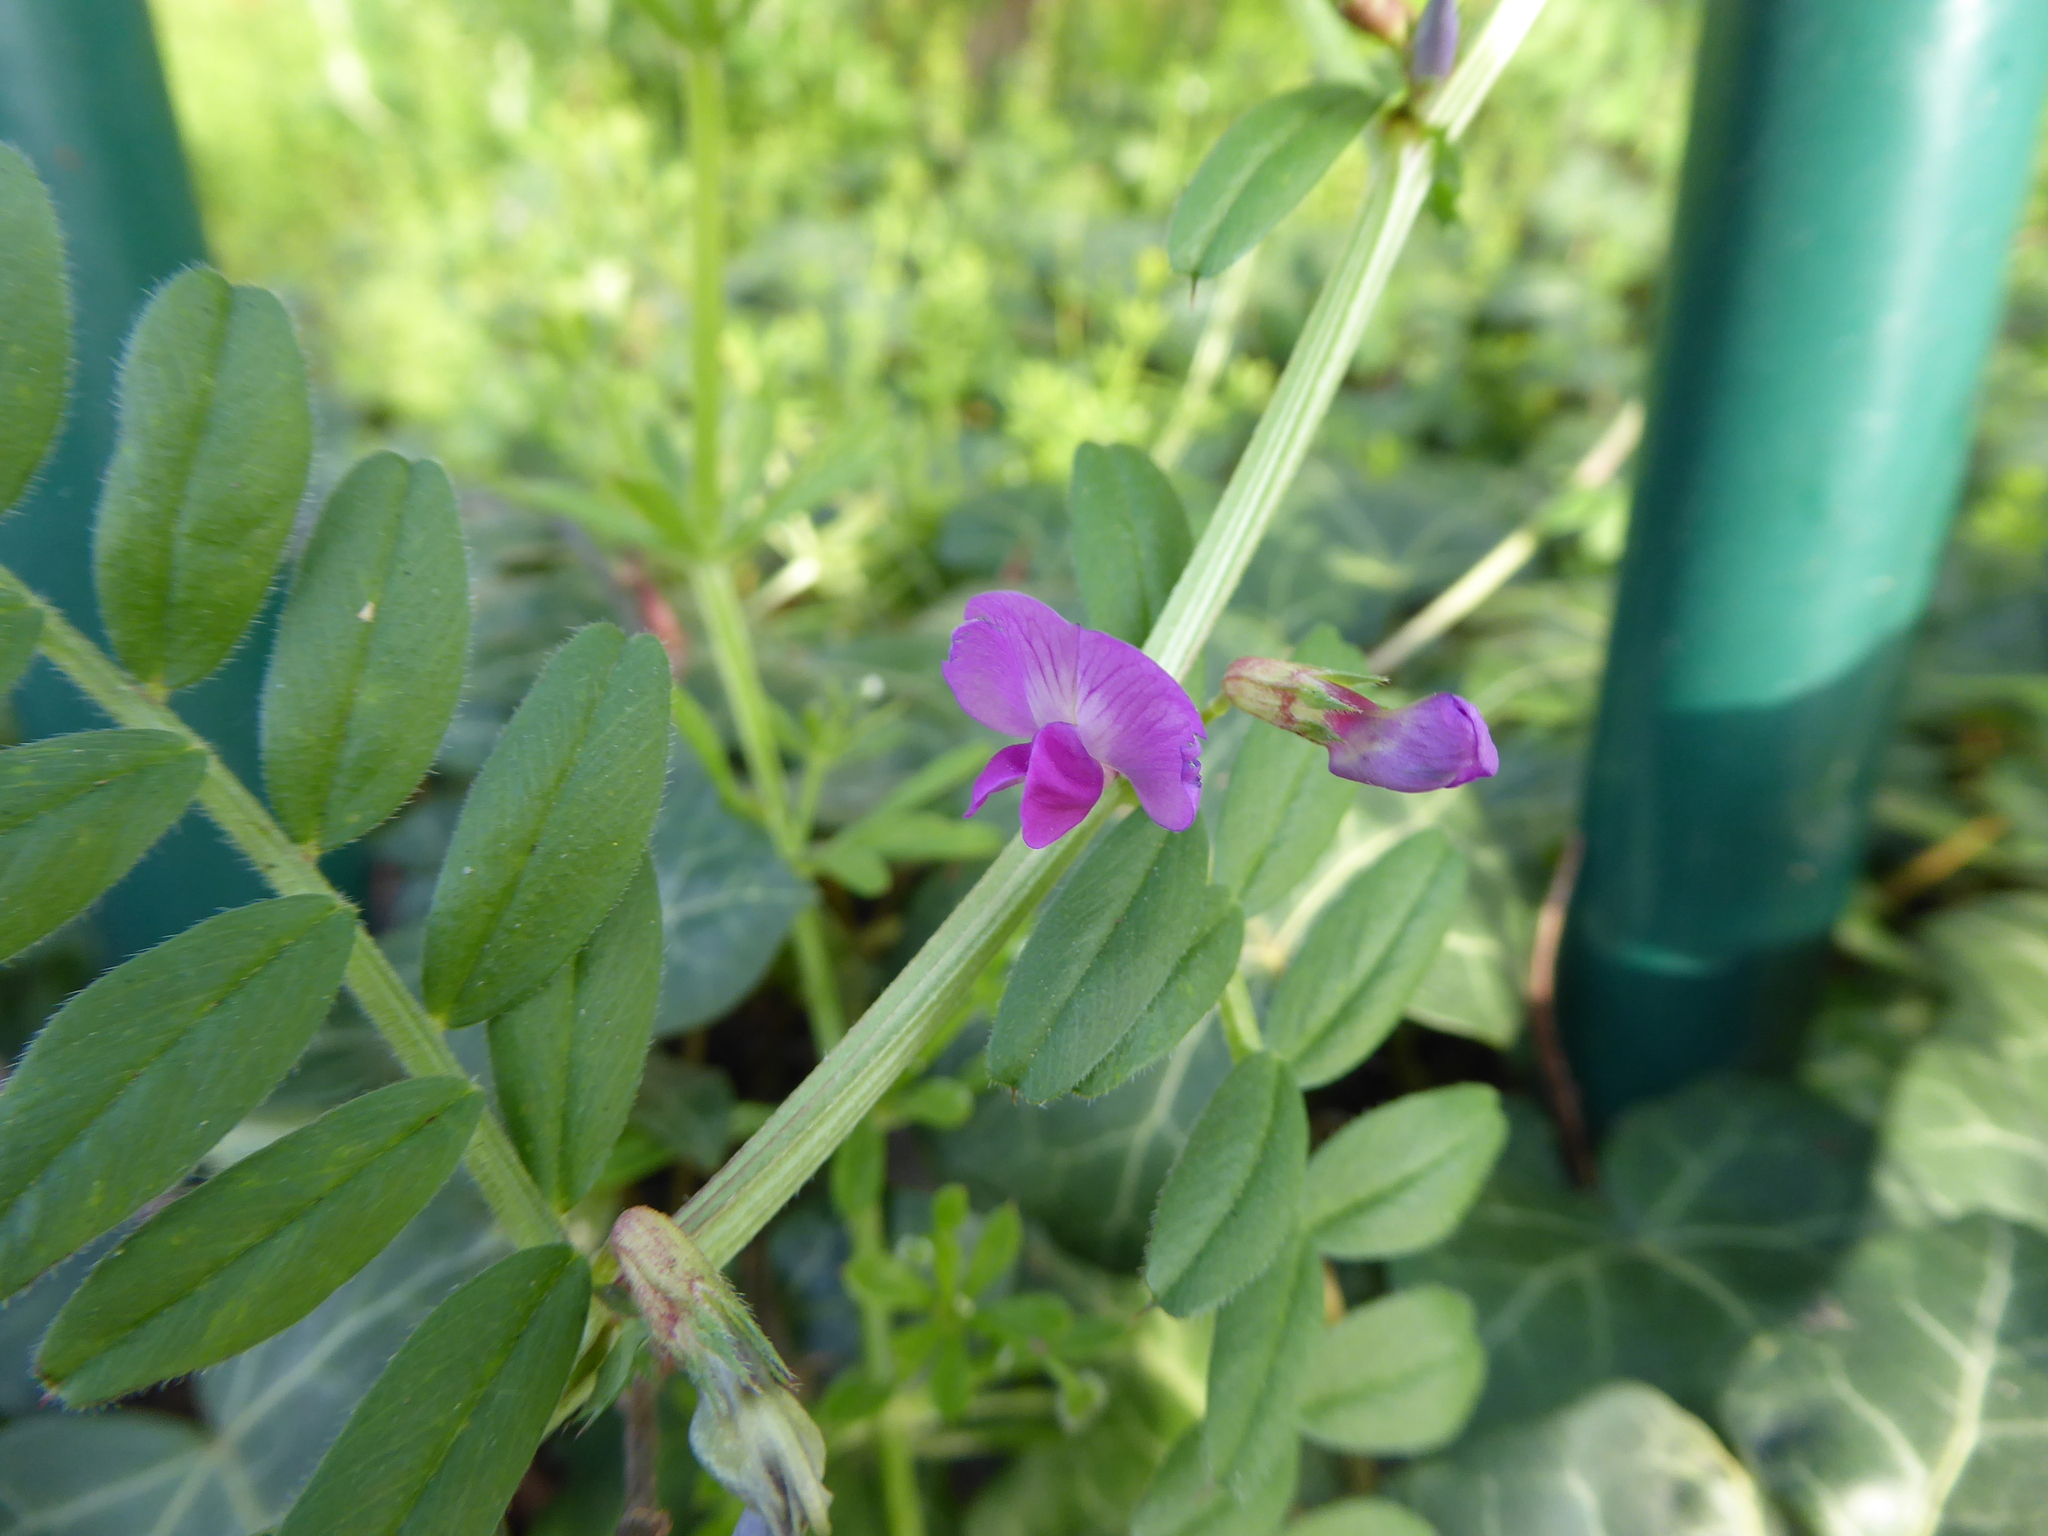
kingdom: Plantae
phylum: Tracheophyta
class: Magnoliopsida
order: Fabales
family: Fabaceae
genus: Vicia
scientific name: Vicia sativa
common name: Garden vetch
